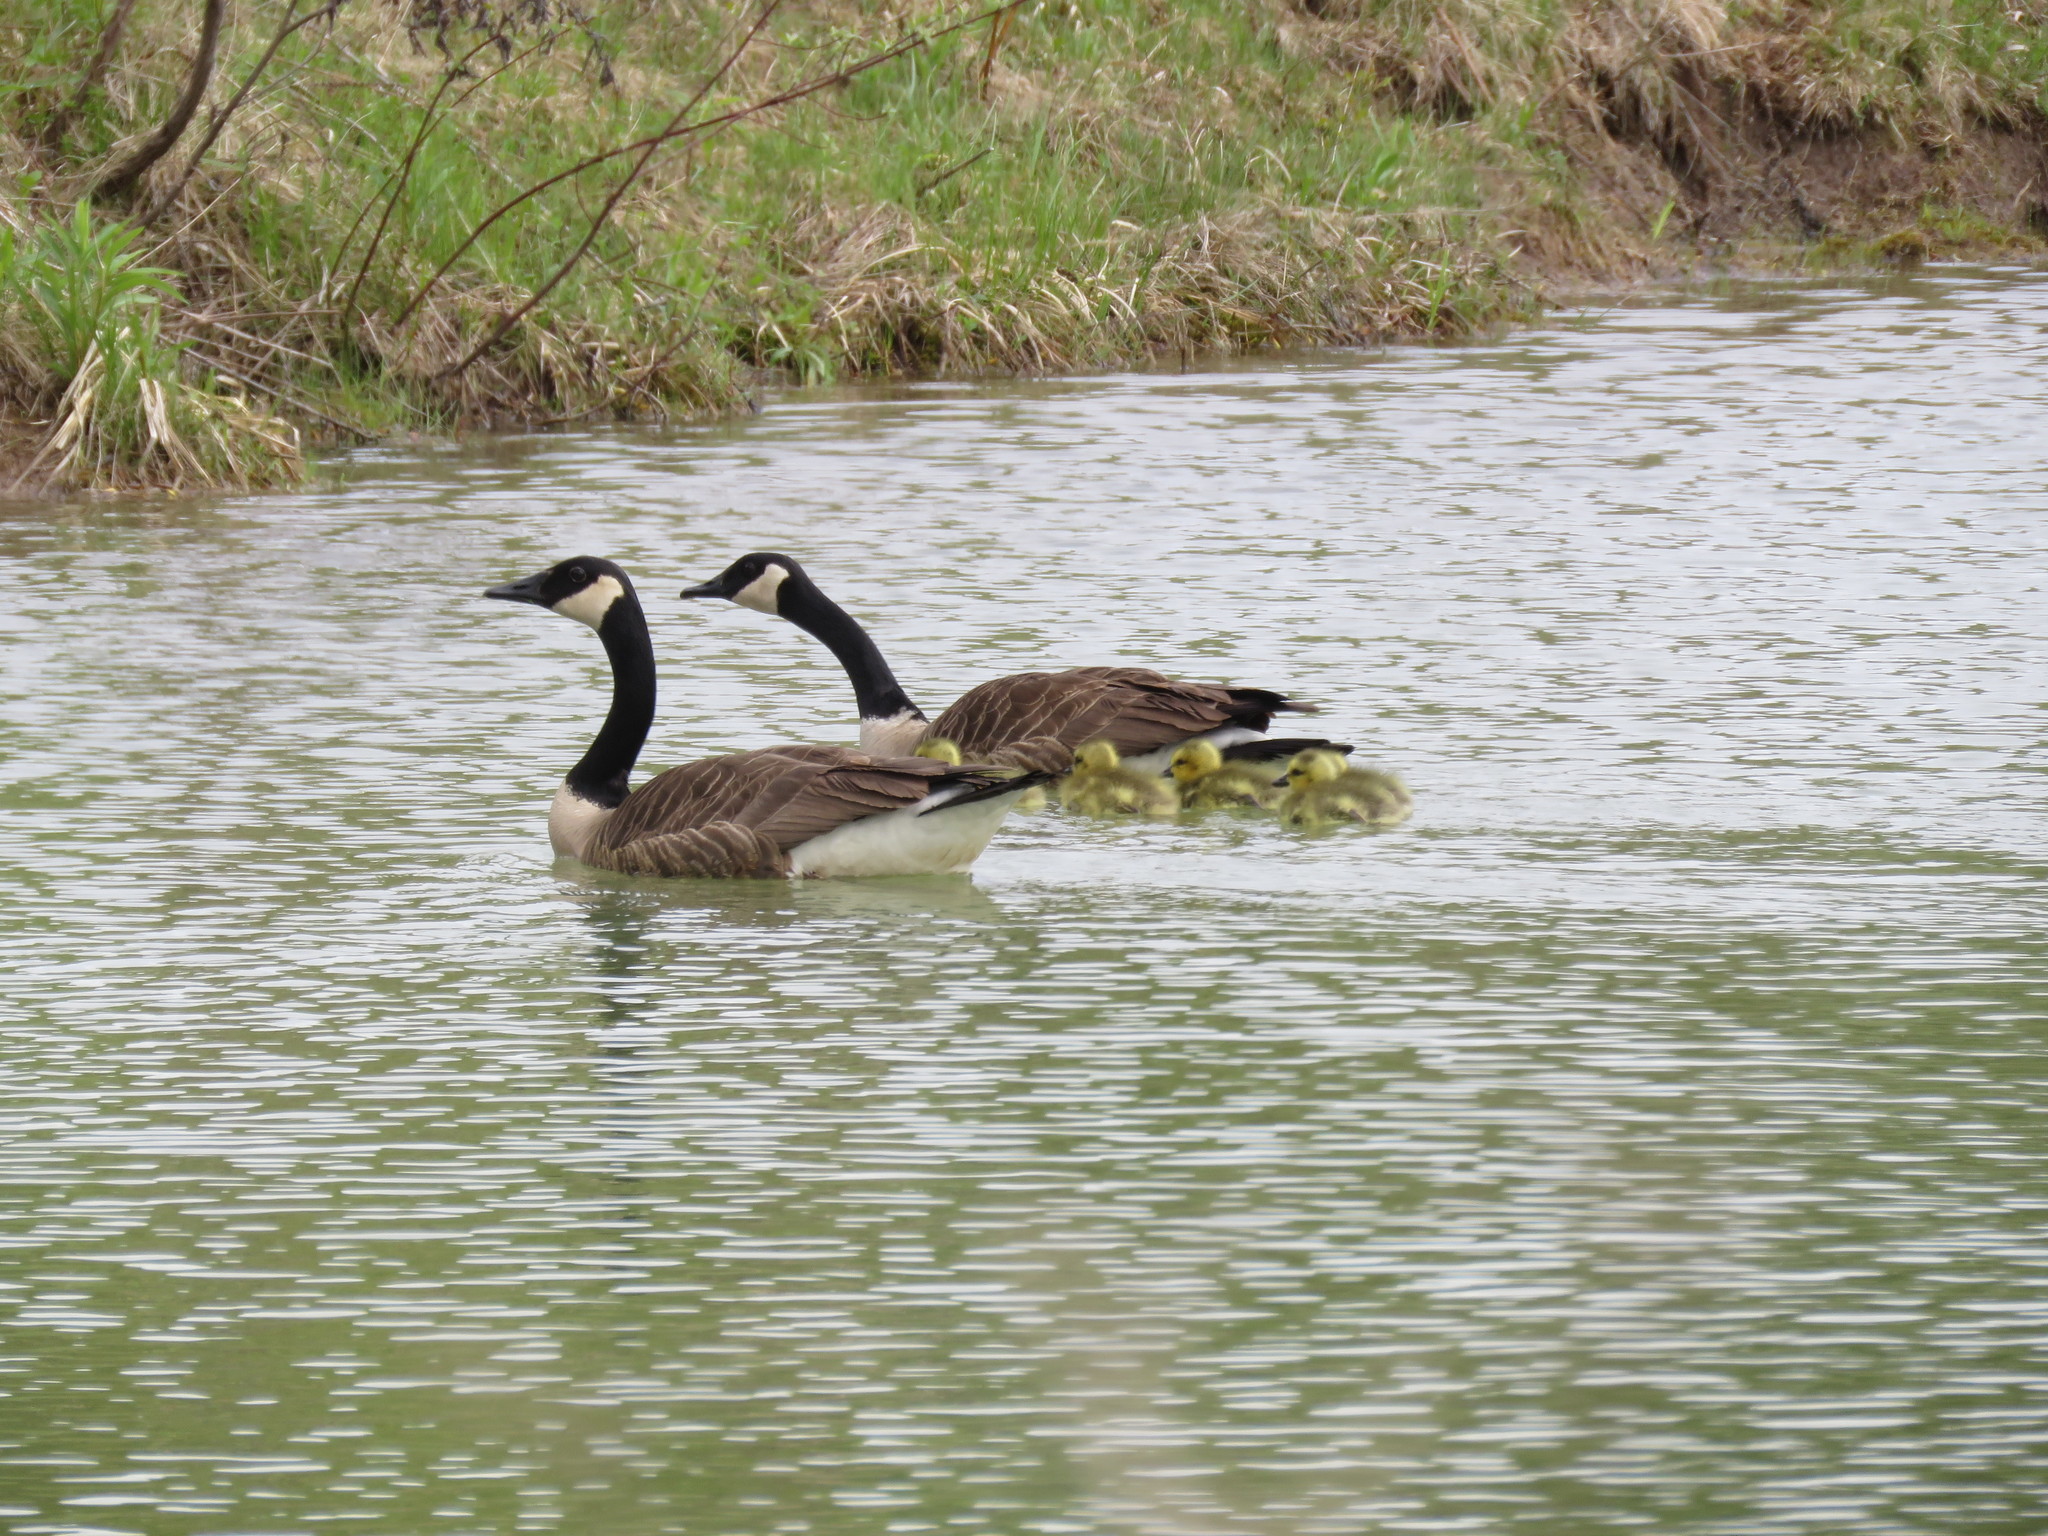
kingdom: Animalia
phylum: Chordata
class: Aves
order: Anseriformes
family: Anatidae
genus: Branta
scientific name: Branta canadensis
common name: Canada goose
